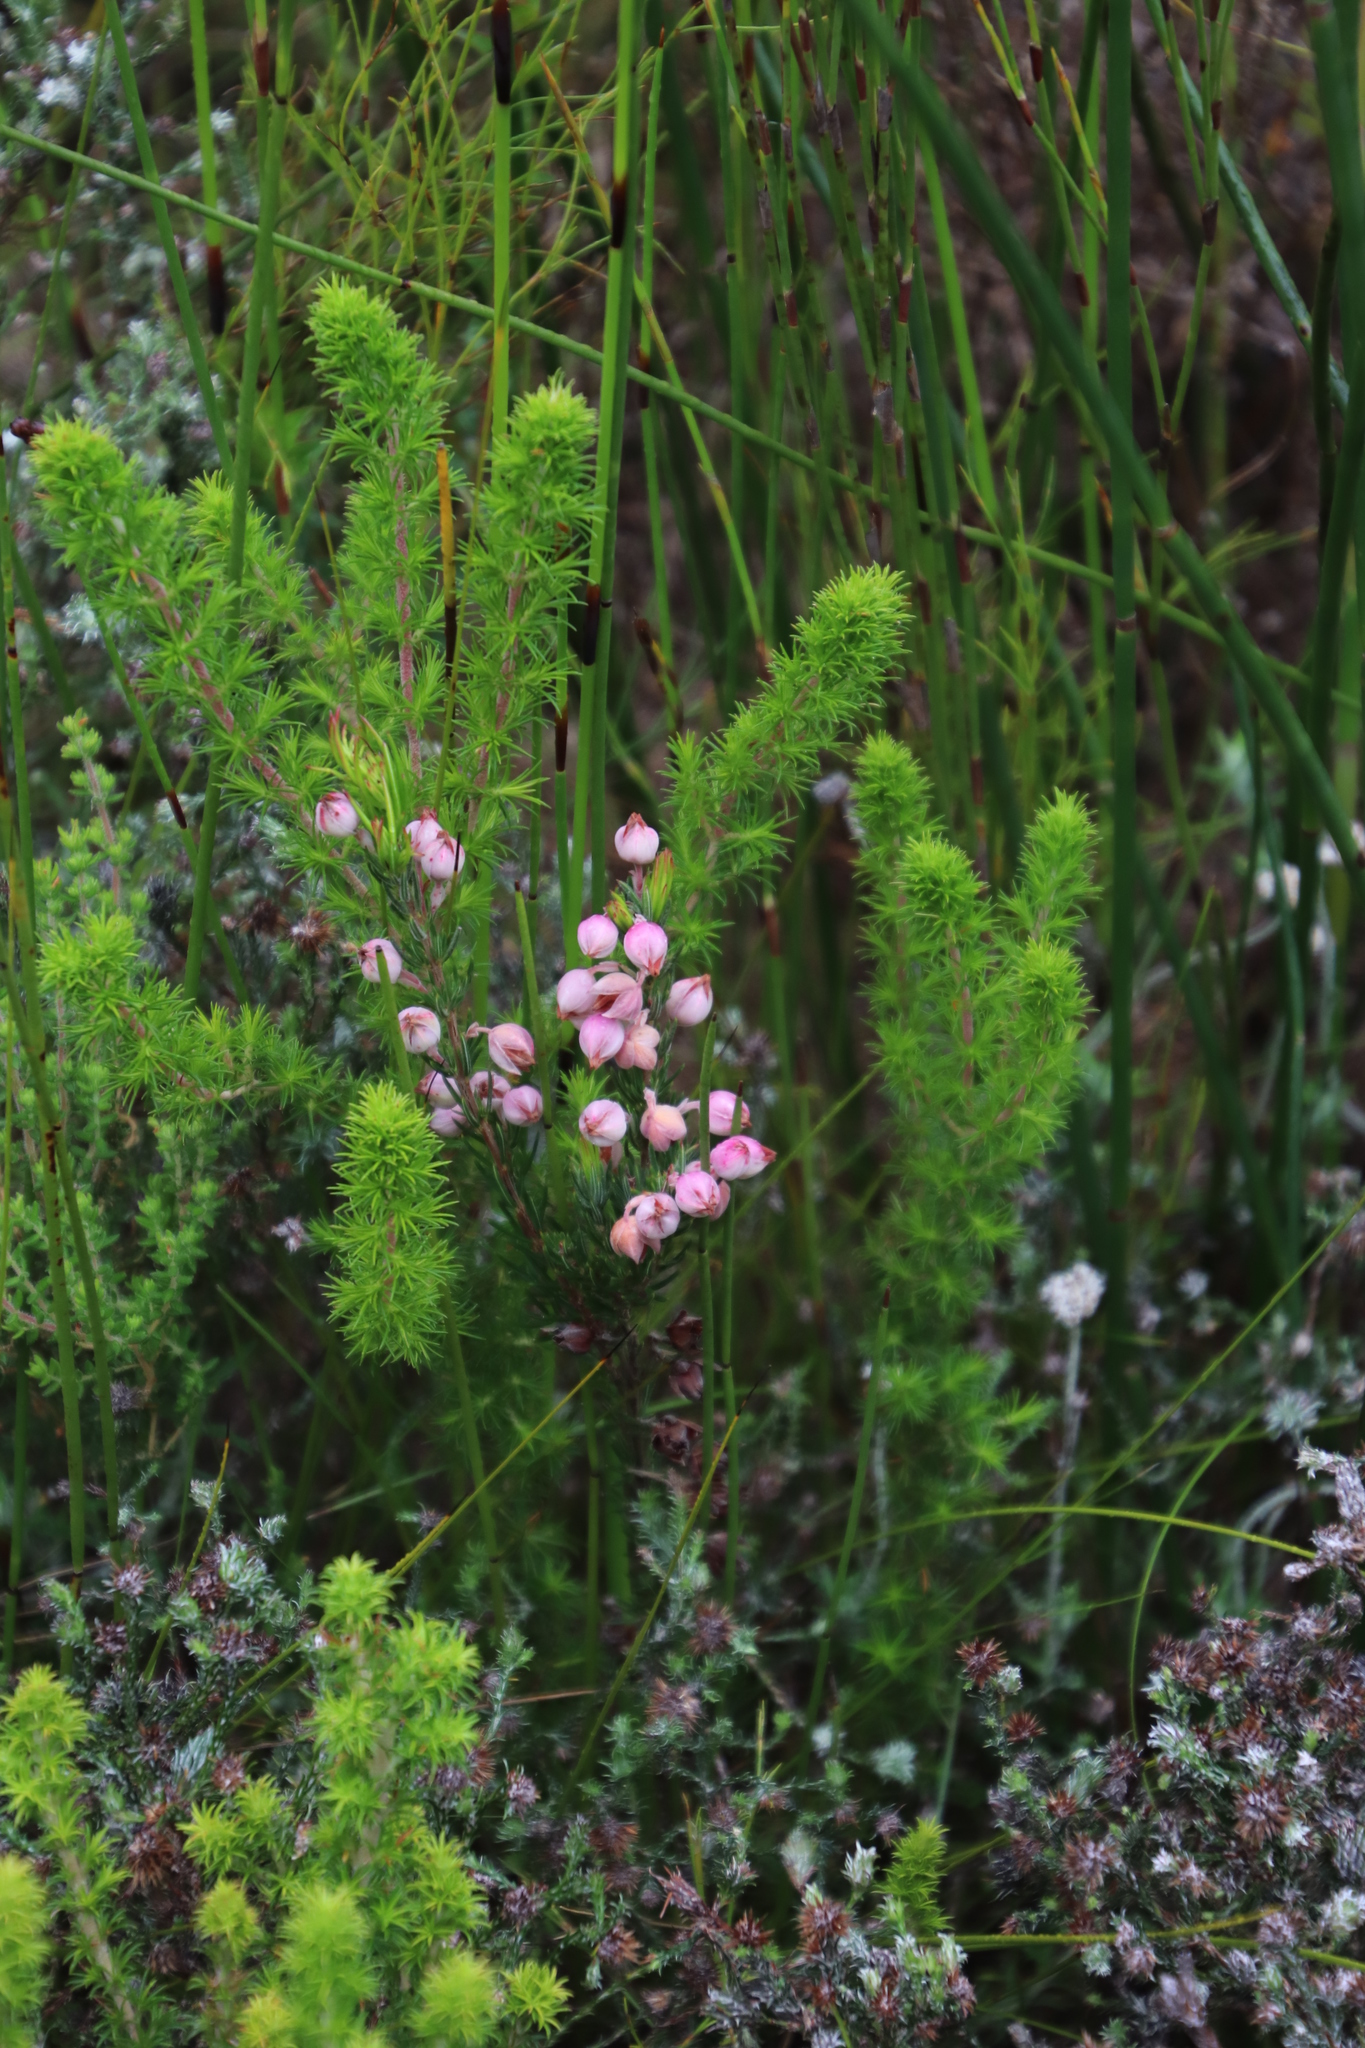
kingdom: Plantae
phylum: Tracheophyta
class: Magnoliopsida
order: Ericales
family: Ericaceae
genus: Erica
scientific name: Erica holosericea
